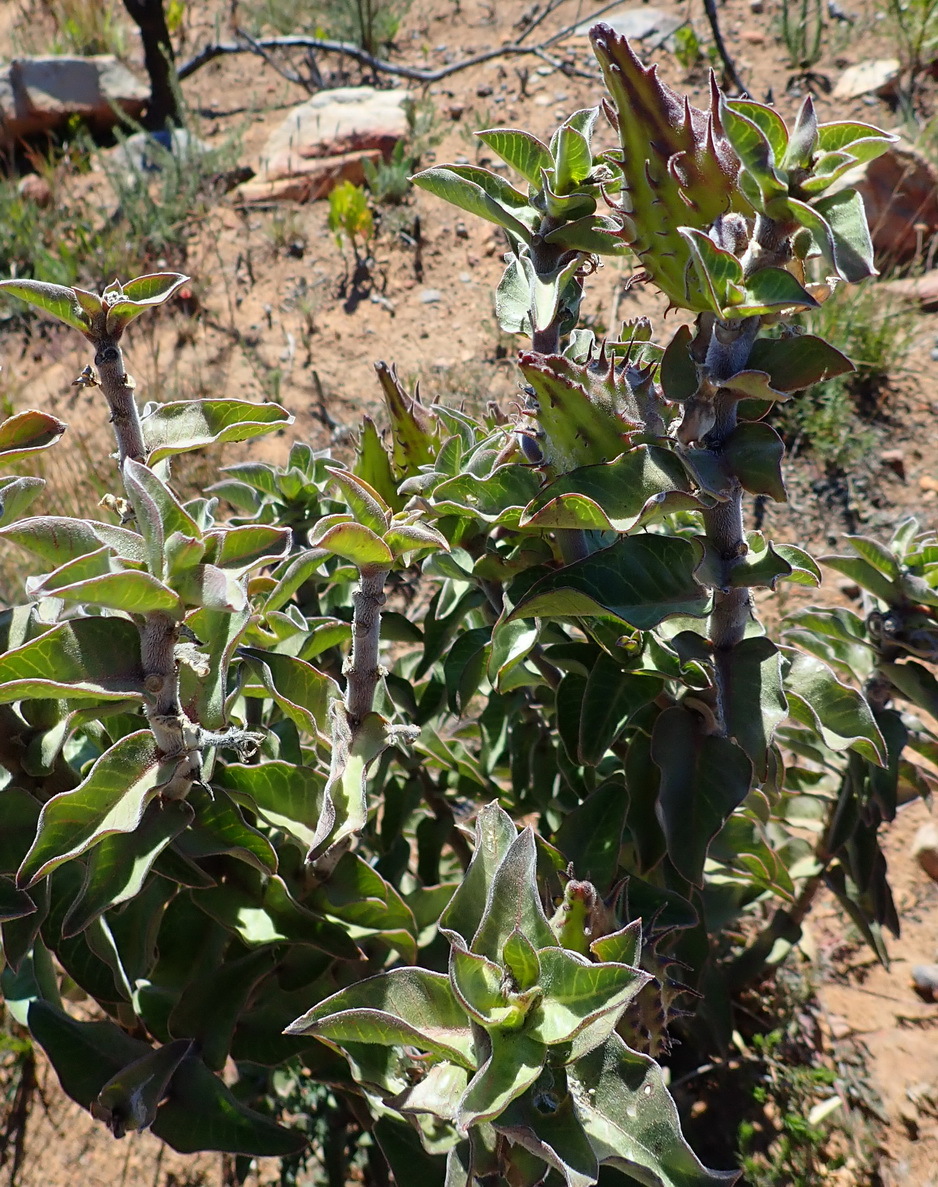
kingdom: Plantae
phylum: Tracheophyta
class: Magnoliopsida
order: Gentianales
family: Apocynaceae
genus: Gomphocarpus
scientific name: Gomphocarpus cancellatus
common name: Wild cotton
